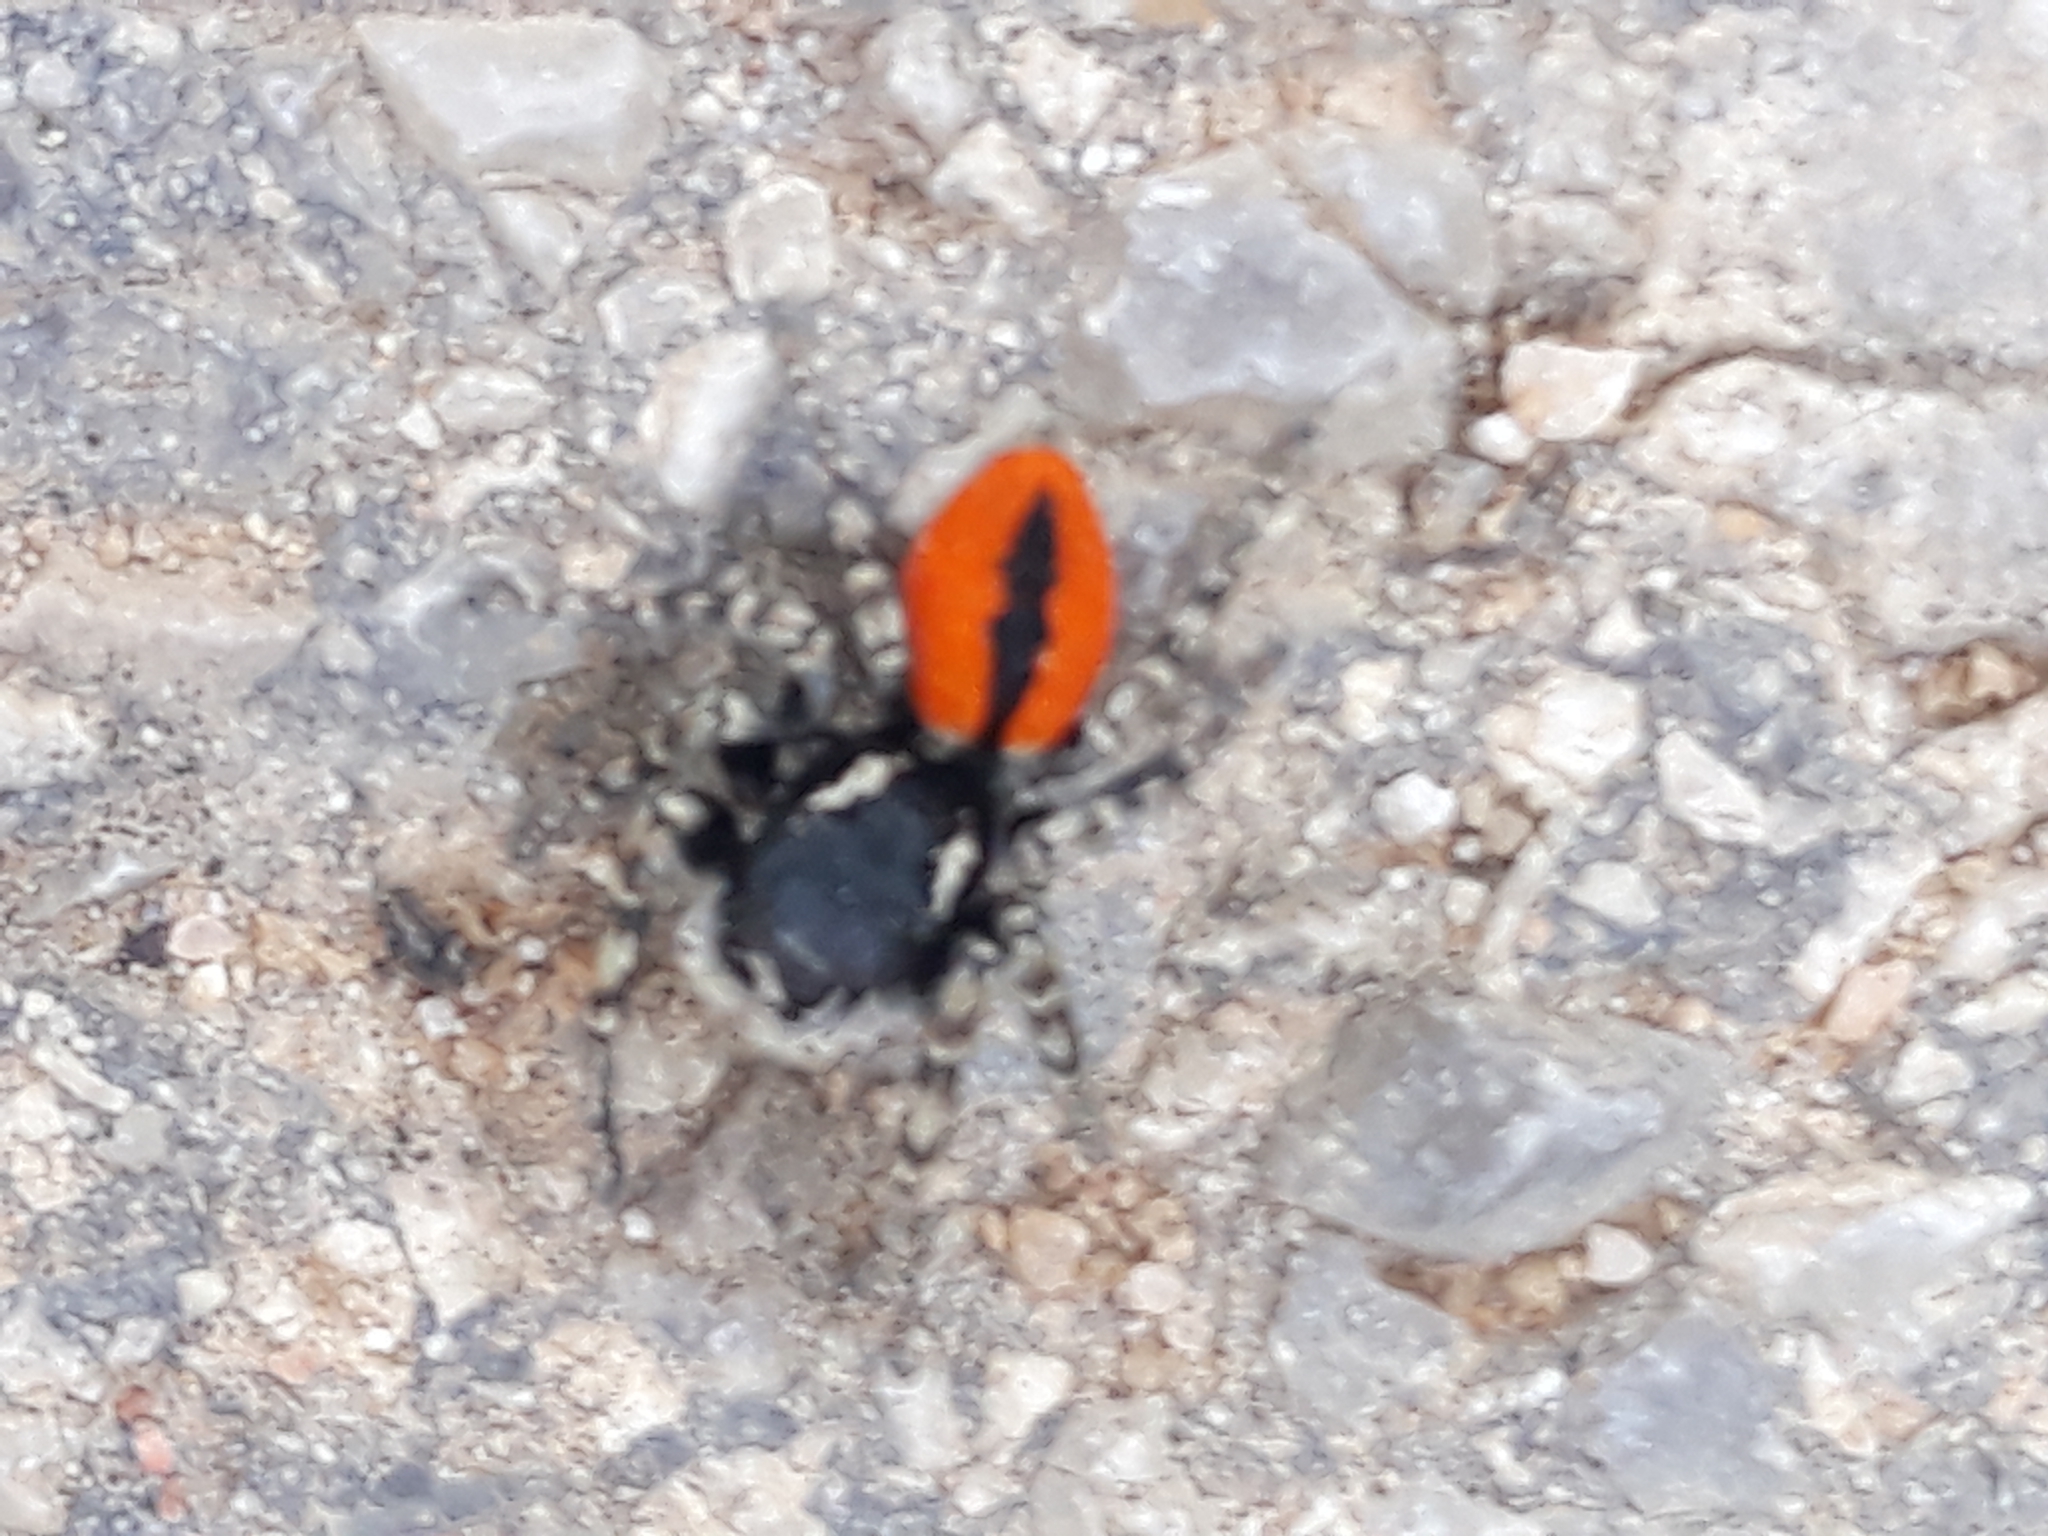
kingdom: Animalia
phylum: Arthropoda
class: Arachnida
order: Araneae
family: Salticidae
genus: Philaeus
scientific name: Philaeus chrysops
